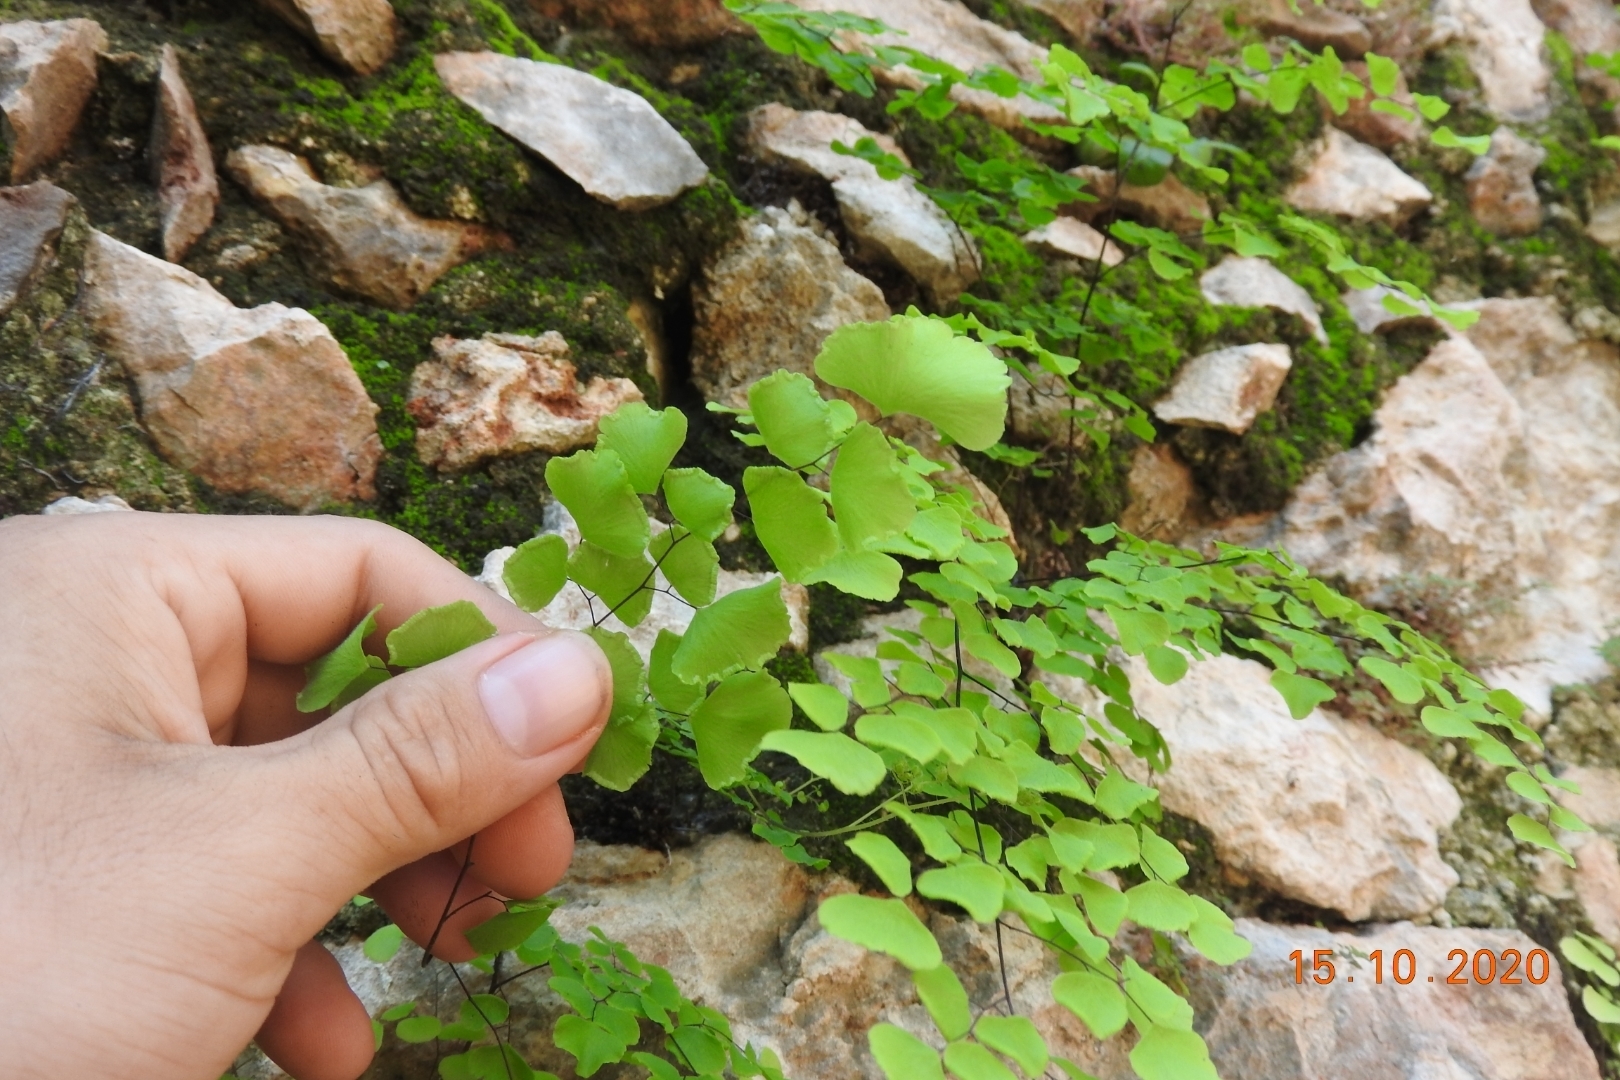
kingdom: Plantae
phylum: Tracheophyta
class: Polypodiopsida
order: Polypodiales
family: Pteridaceae
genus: Adiantum
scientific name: Adiantum tricholepis
